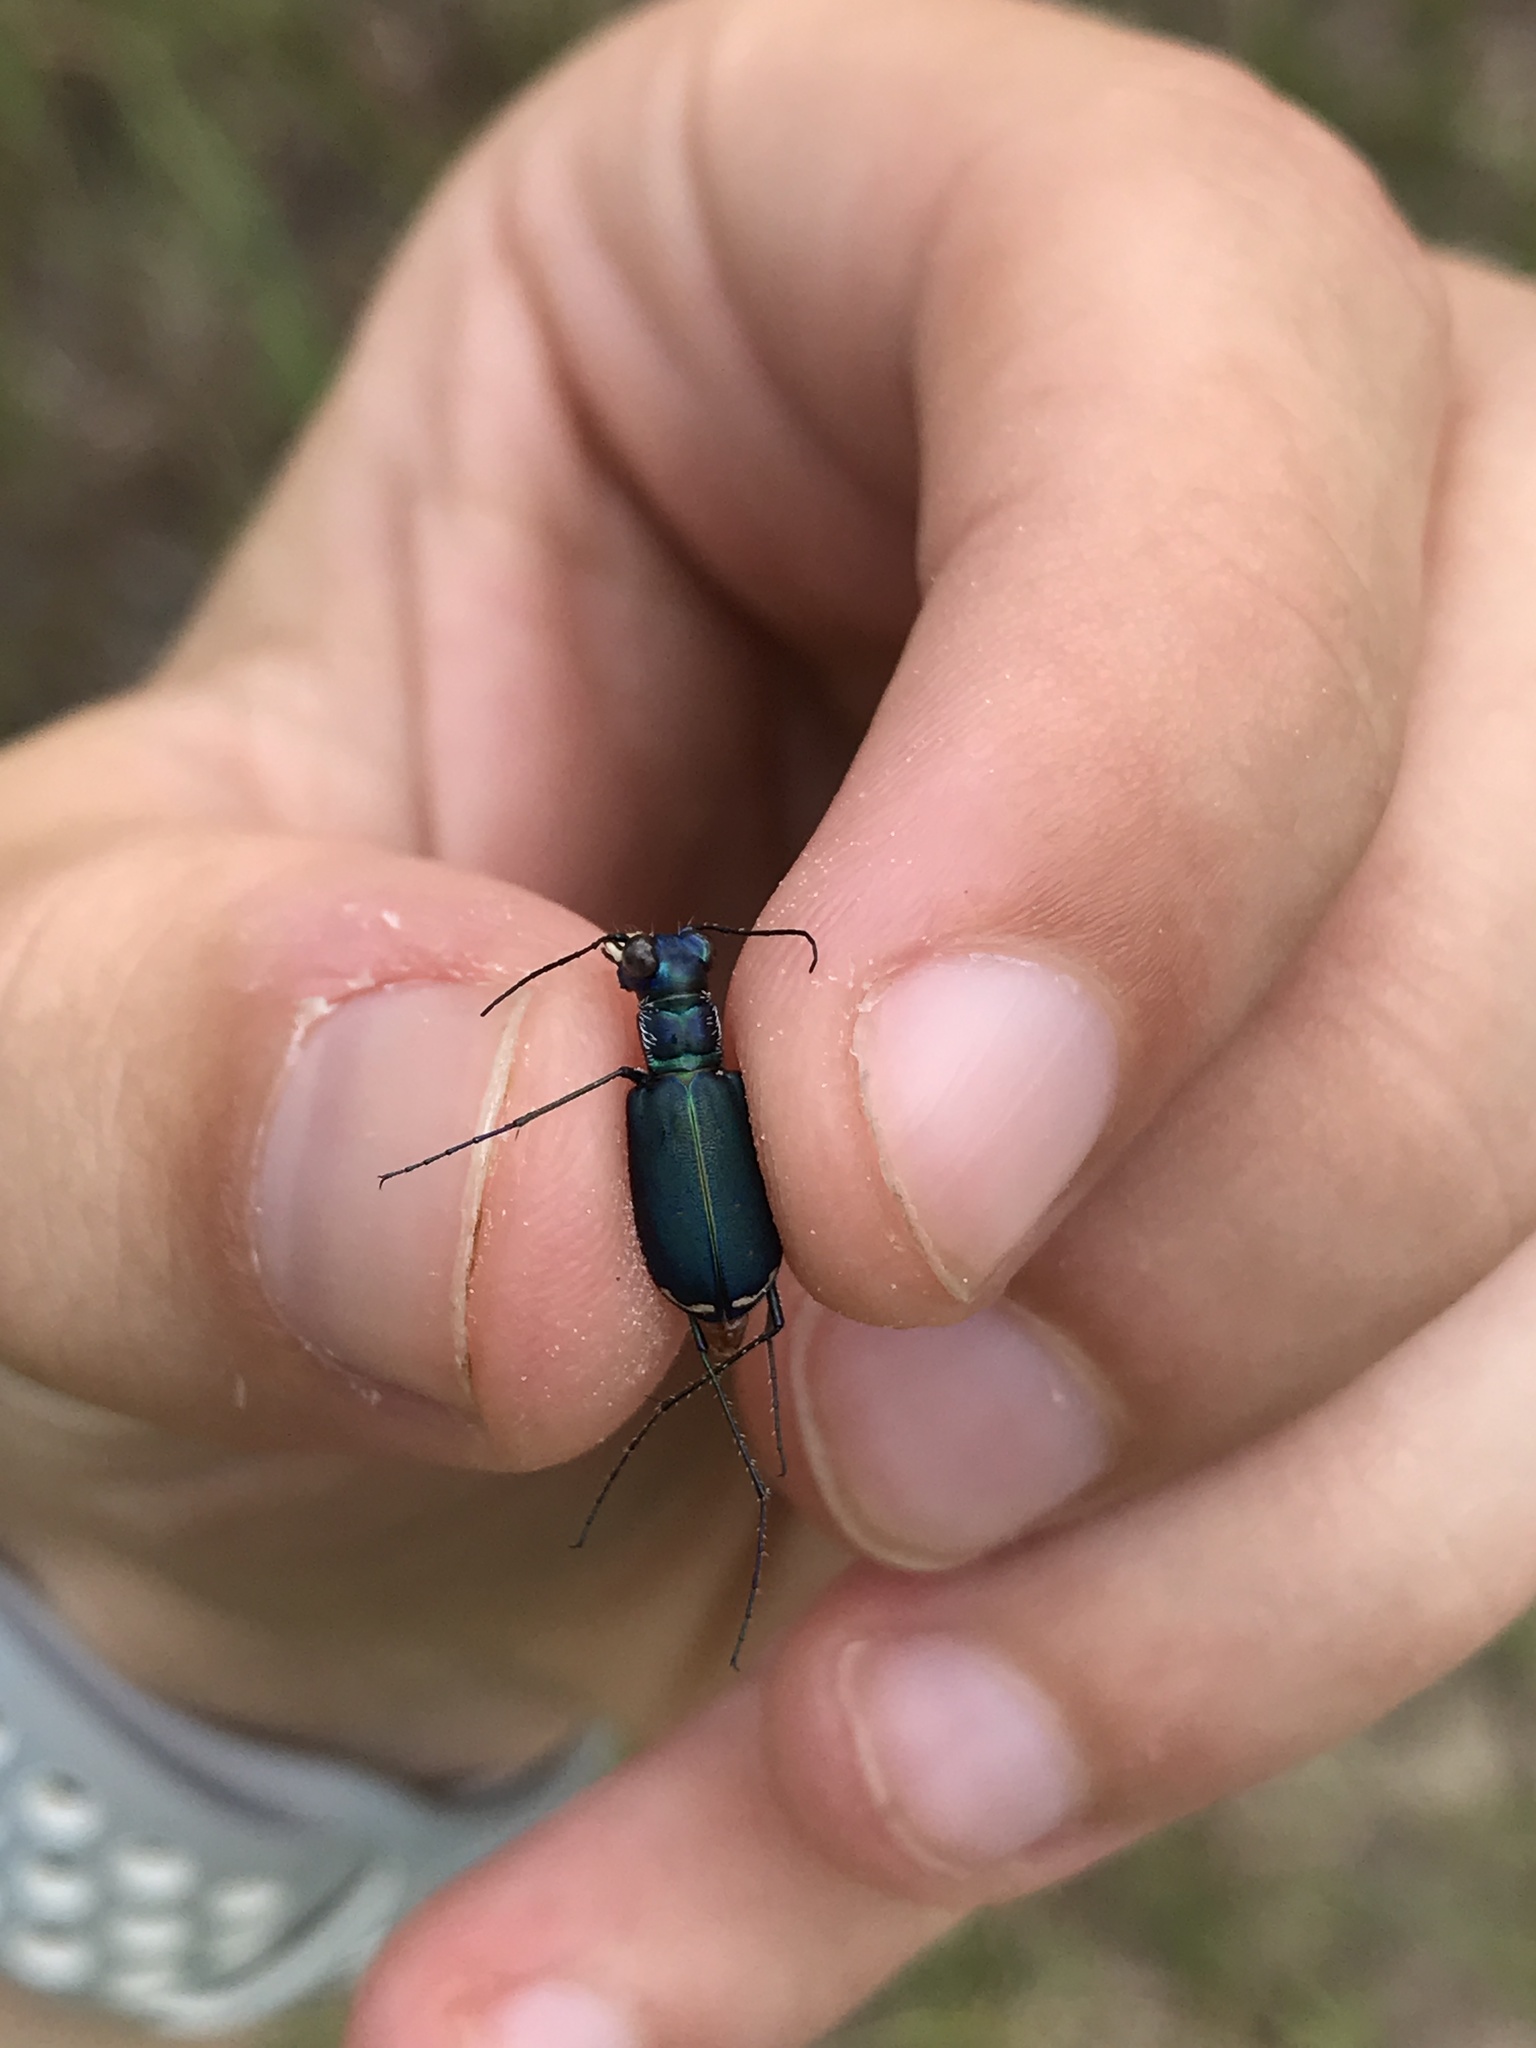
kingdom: Animalia
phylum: Arthropoda
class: Insecta
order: Coleoptera
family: Carabidae
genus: Cicindela
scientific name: Cicindela rufiventris
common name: Eastern red-bellied tiger beetle
